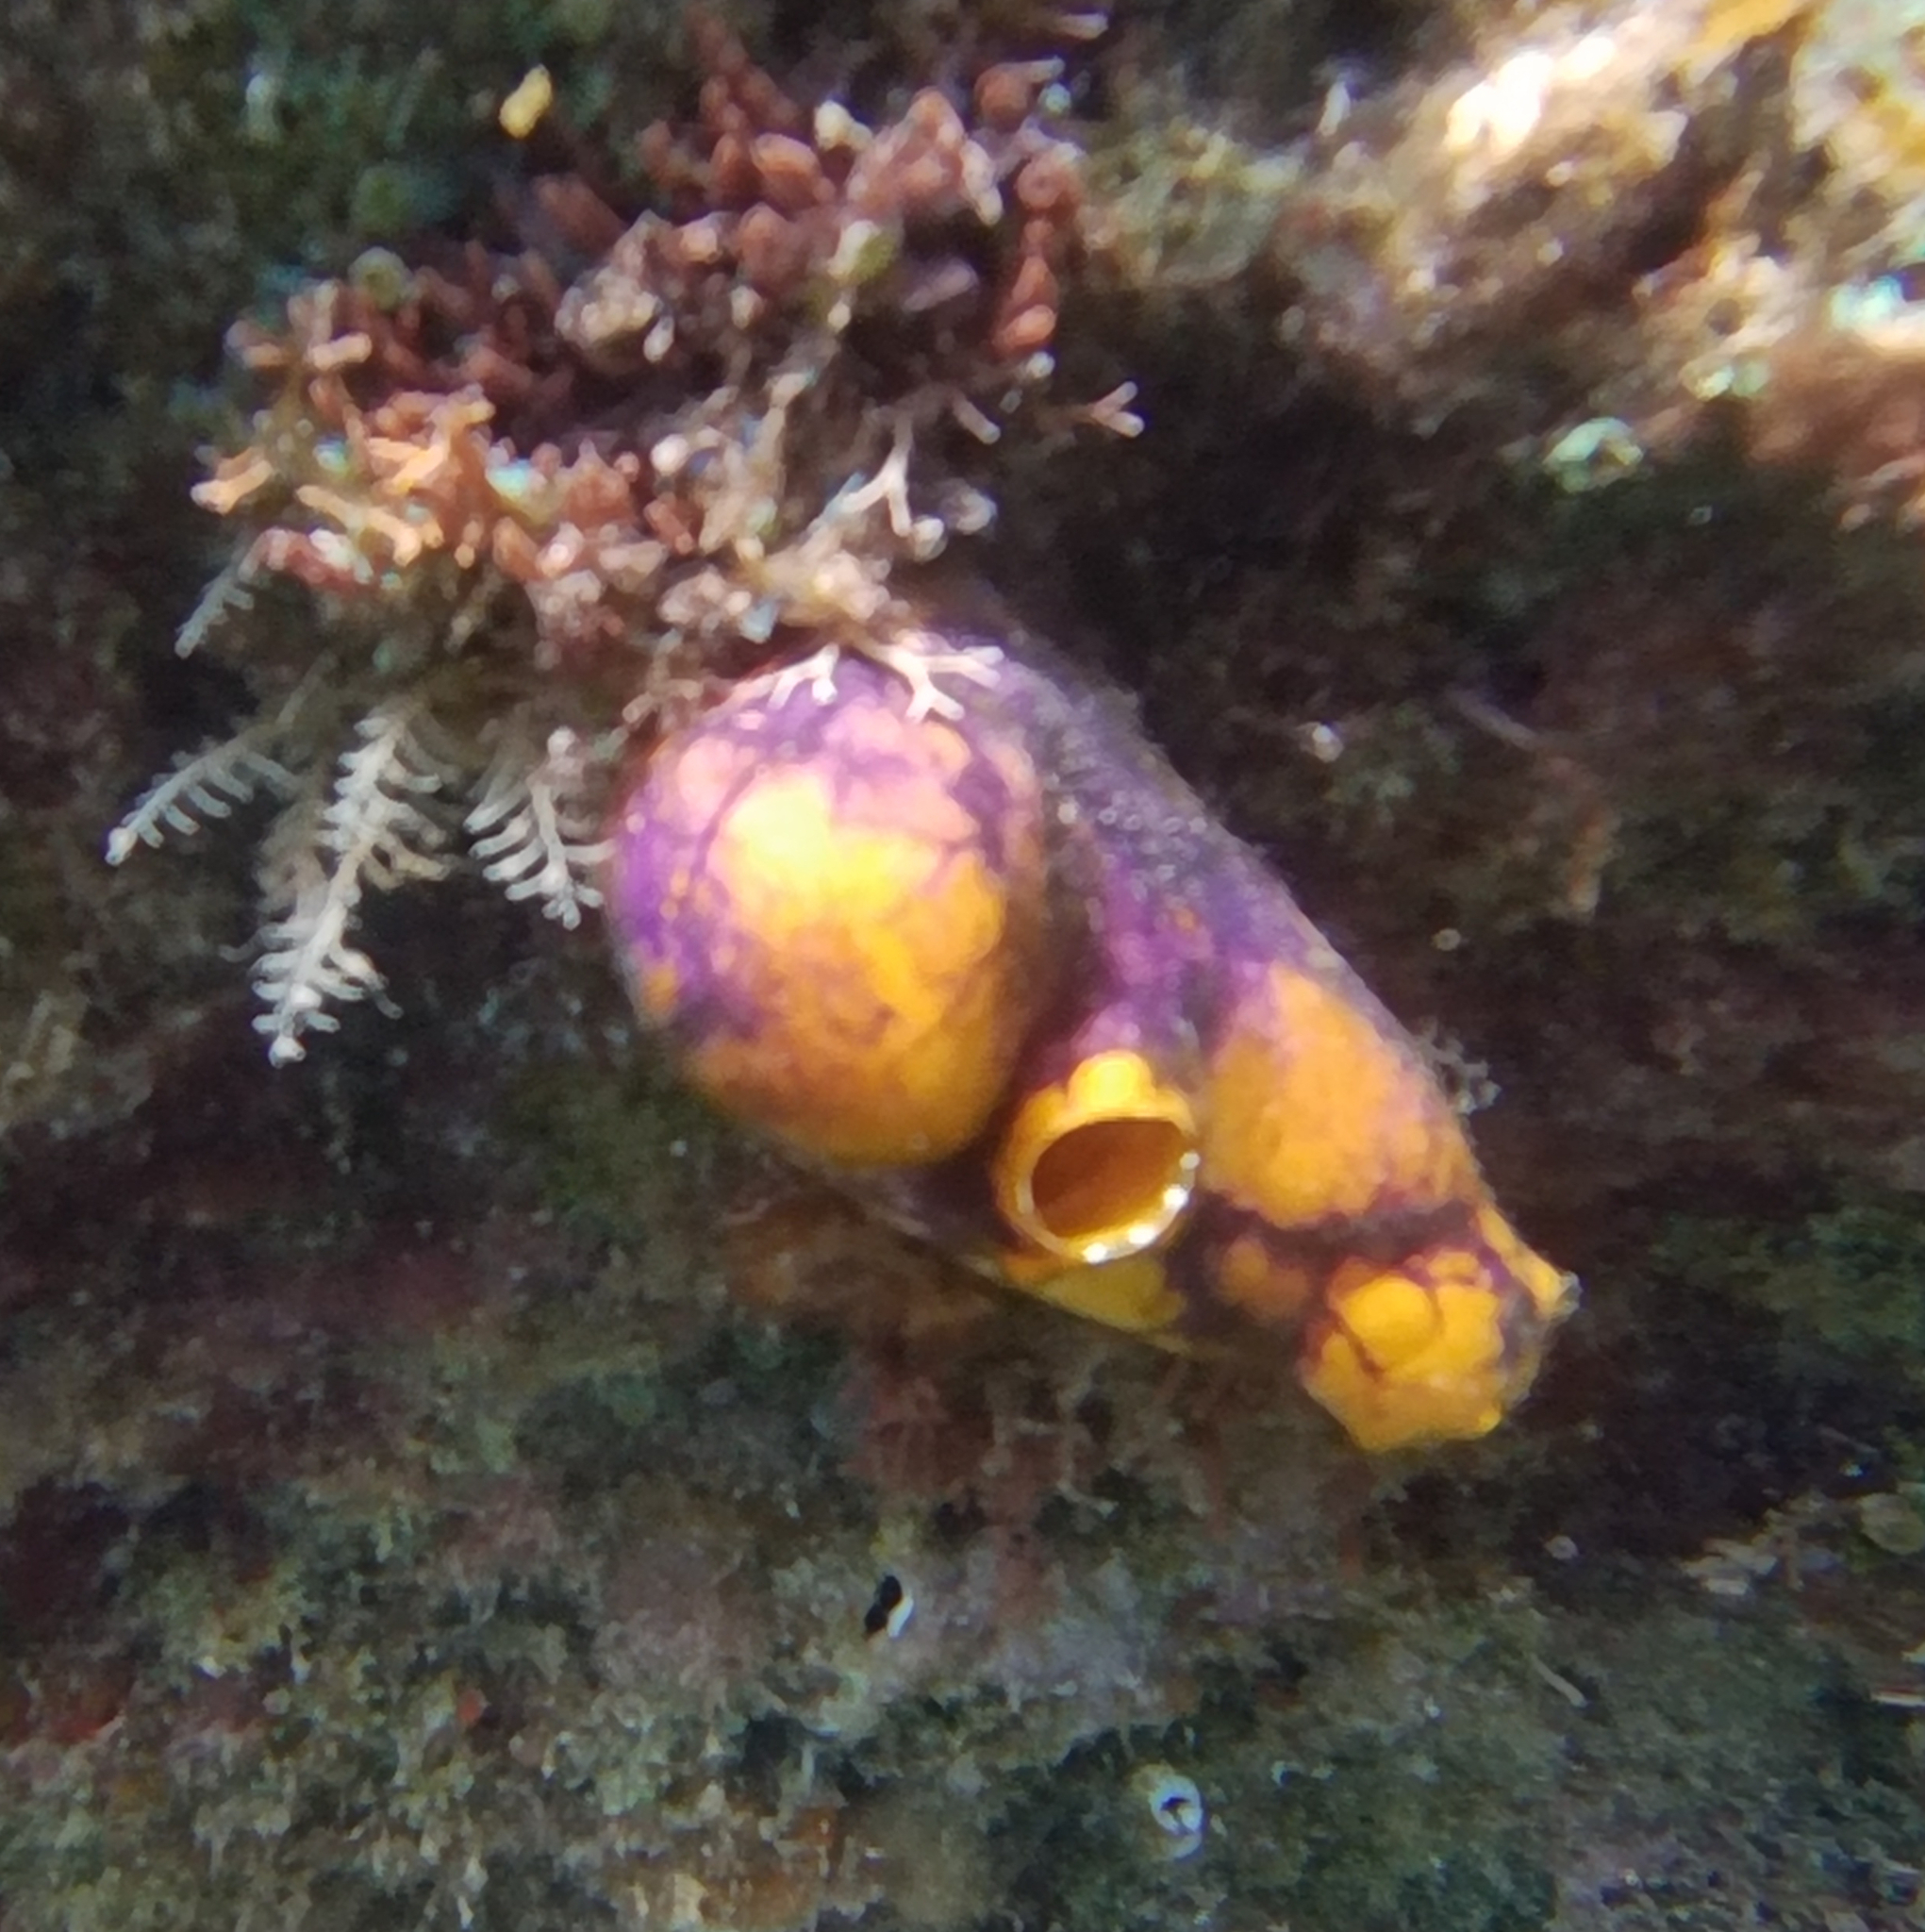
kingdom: Animalia
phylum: Chordata
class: Ascidiacea
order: Stolidobranchia
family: Styelidae
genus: Polycarpa
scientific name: Polycarpa aurata
